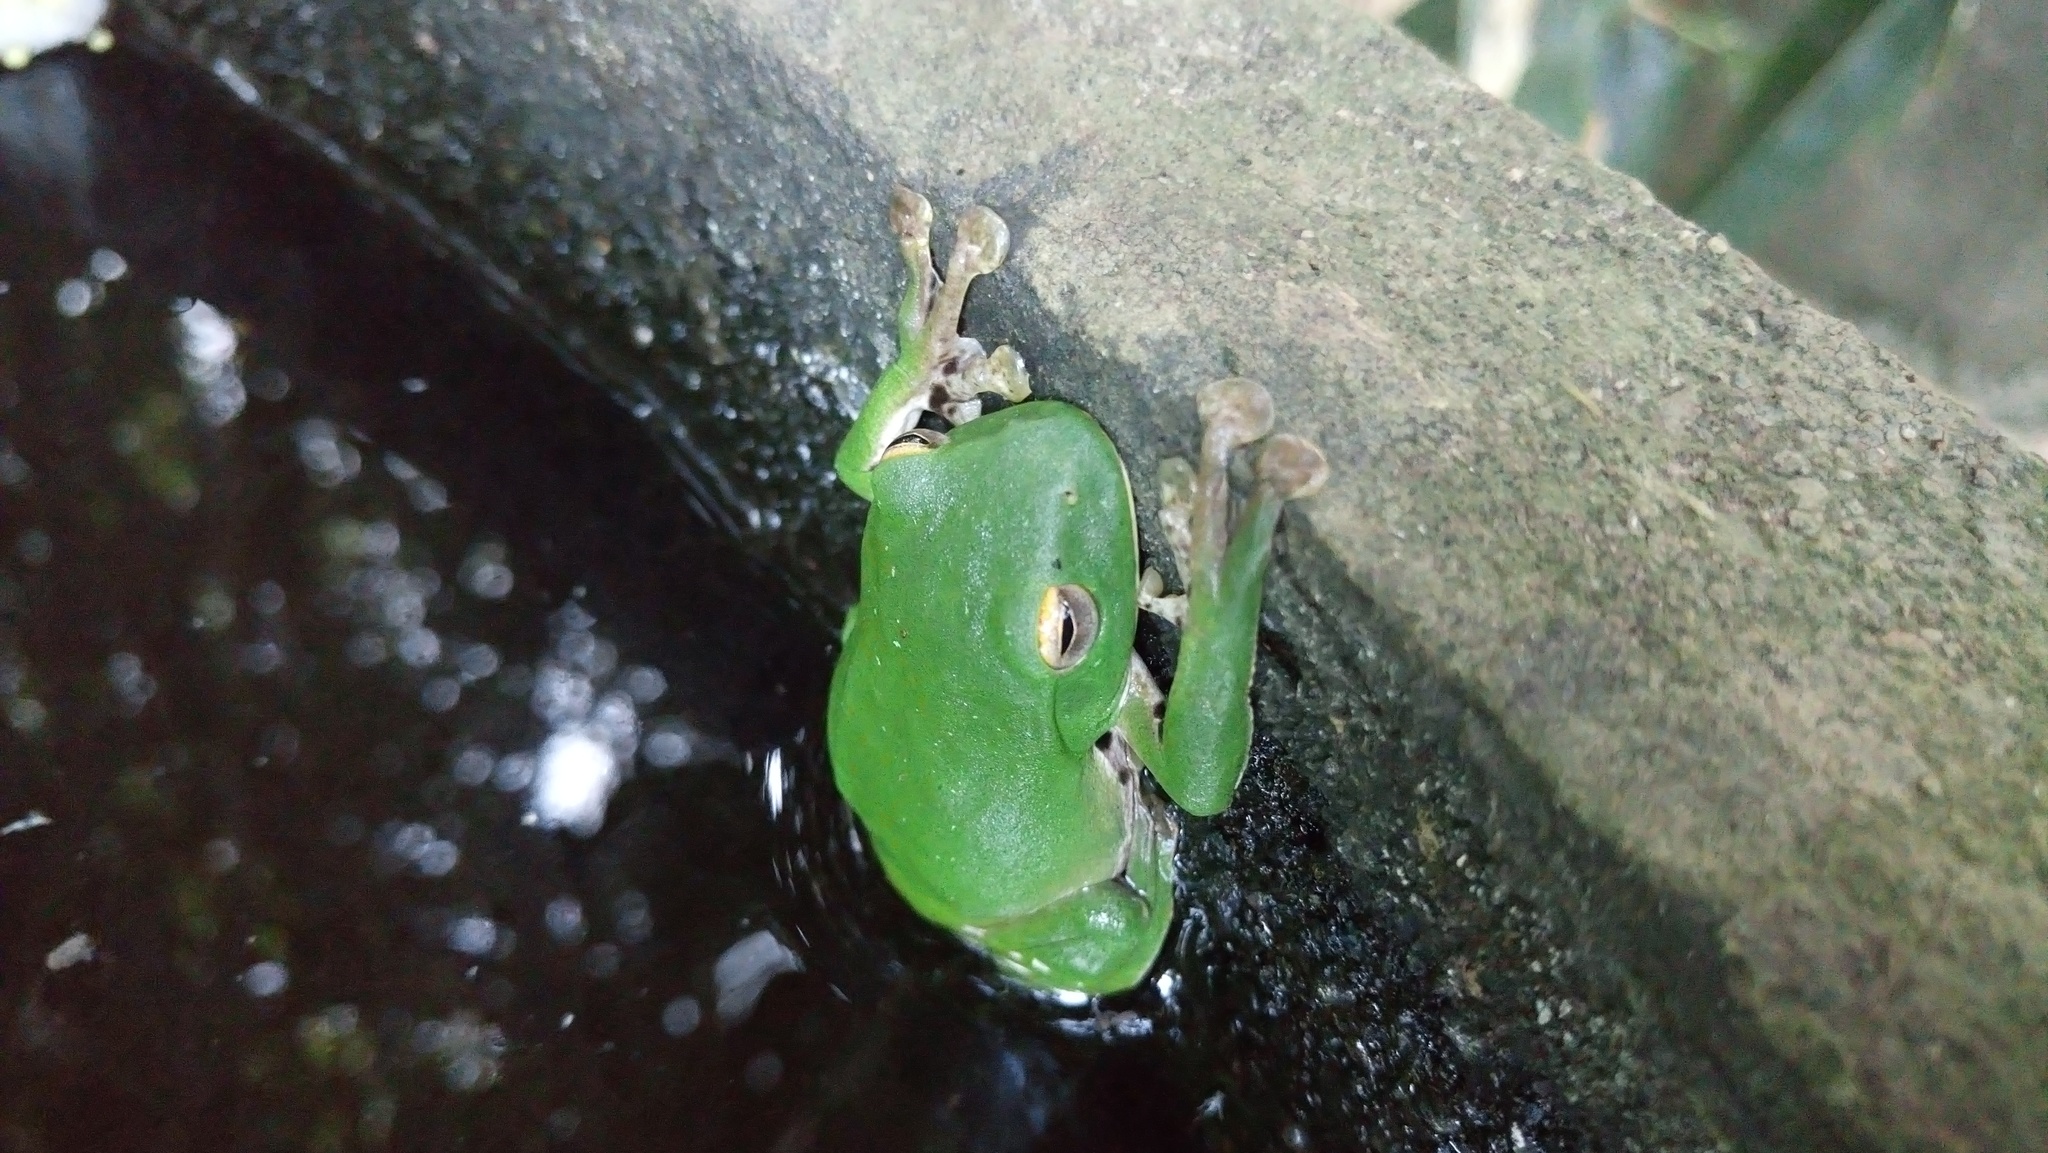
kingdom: Animalia
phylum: Chordata
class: Amphibia
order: Anura
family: Rhacophoridae
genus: Zhangixalus
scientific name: Zhangixalus moltrechti
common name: Moltrecht's treefrog
